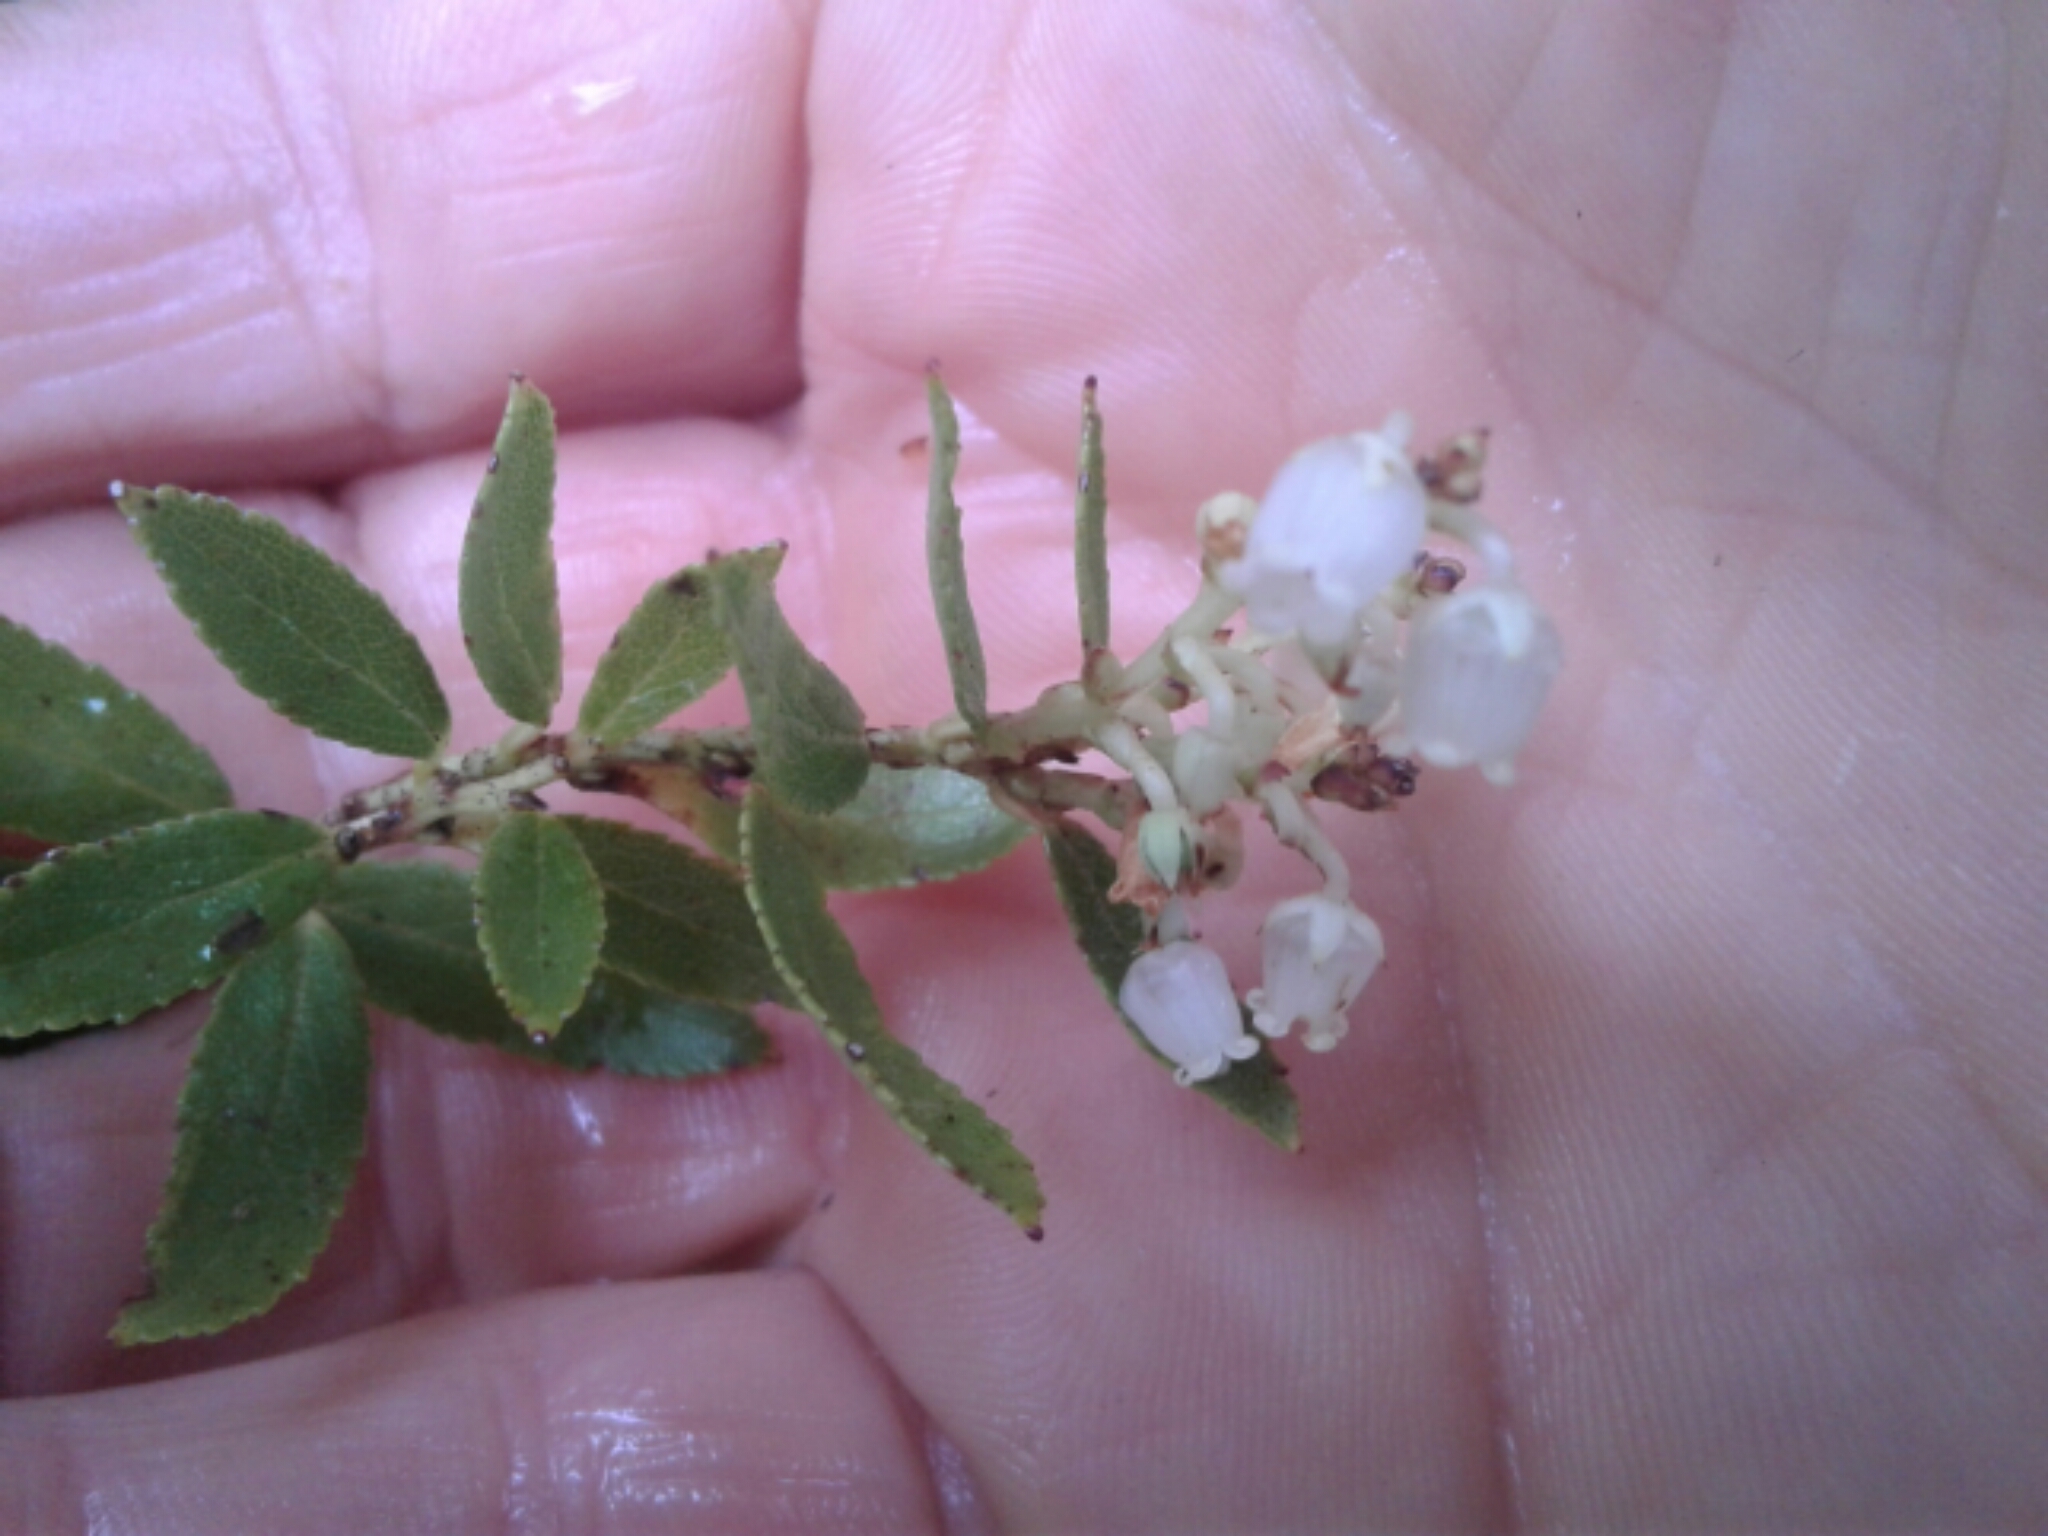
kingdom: Plantae
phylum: Tracheophyta
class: Magnoliopsida
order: Ericales
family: Ericaceae
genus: Gaultheria
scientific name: Gaultheria rupestris
